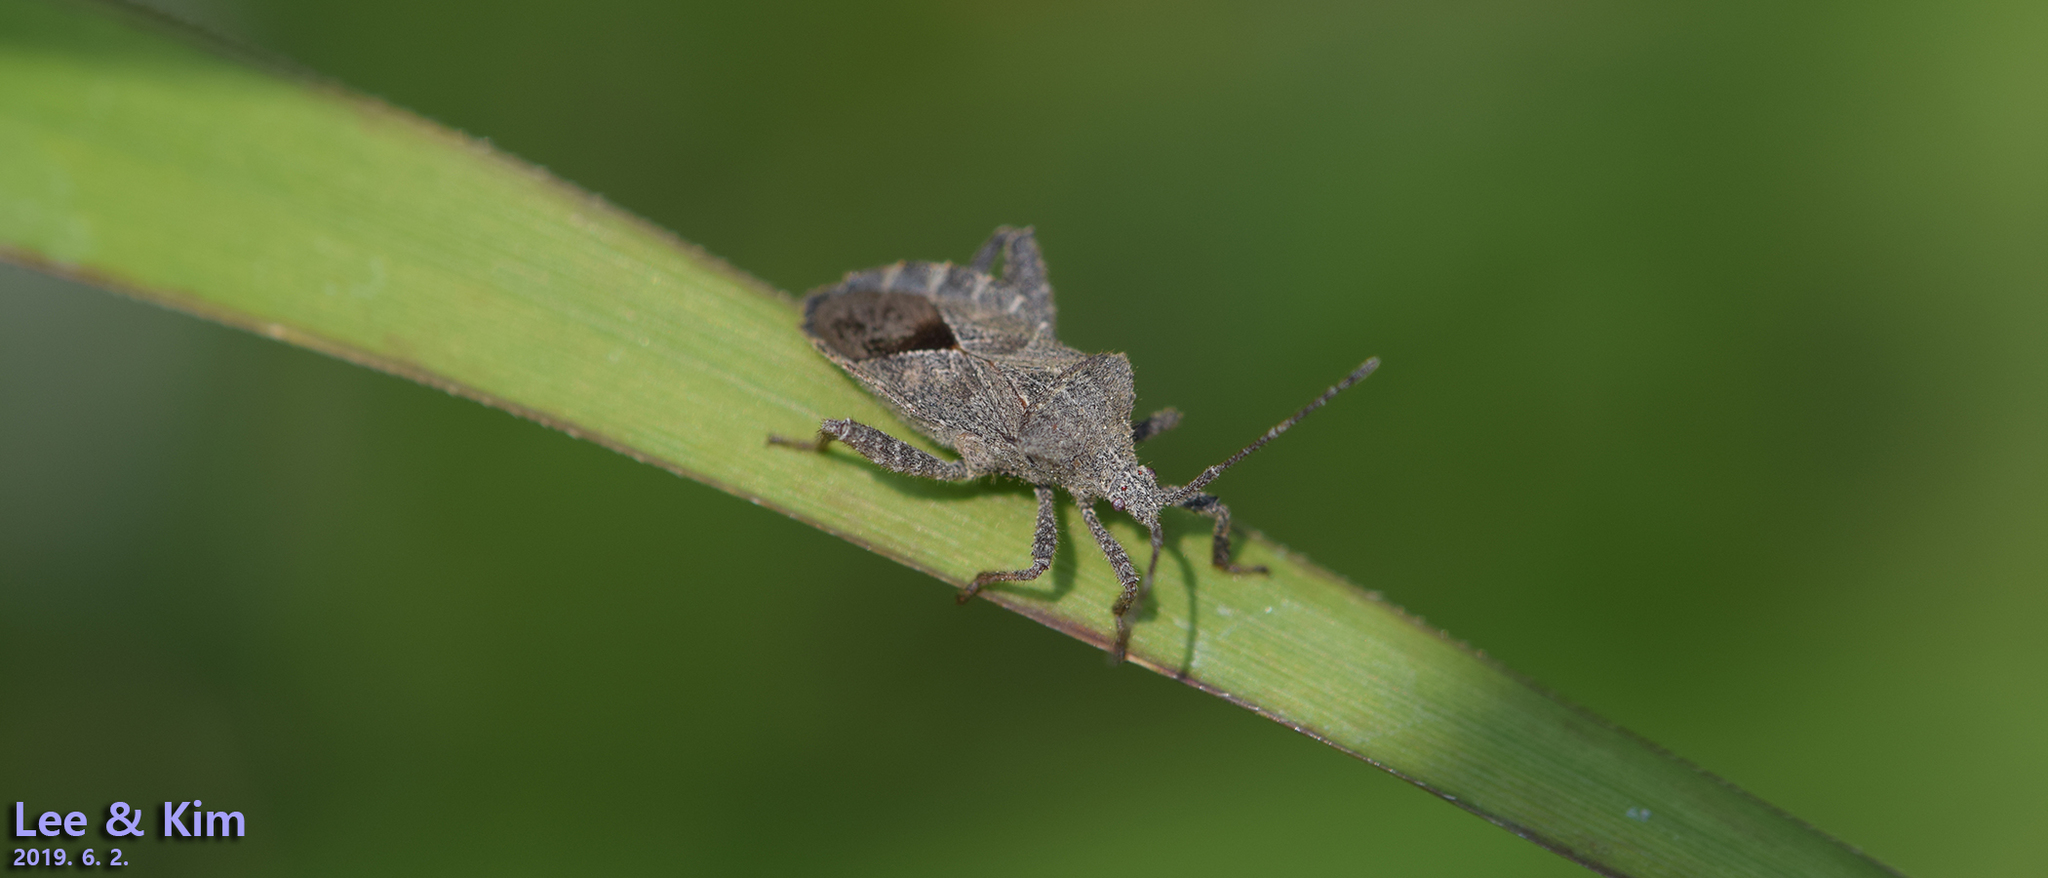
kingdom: Animalia
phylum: Arthropoda
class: Insecta
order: Hemiptera
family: Coreidae
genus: Acanthocoris
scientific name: Acanthocoris sordidus
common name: Winter cherry bug
